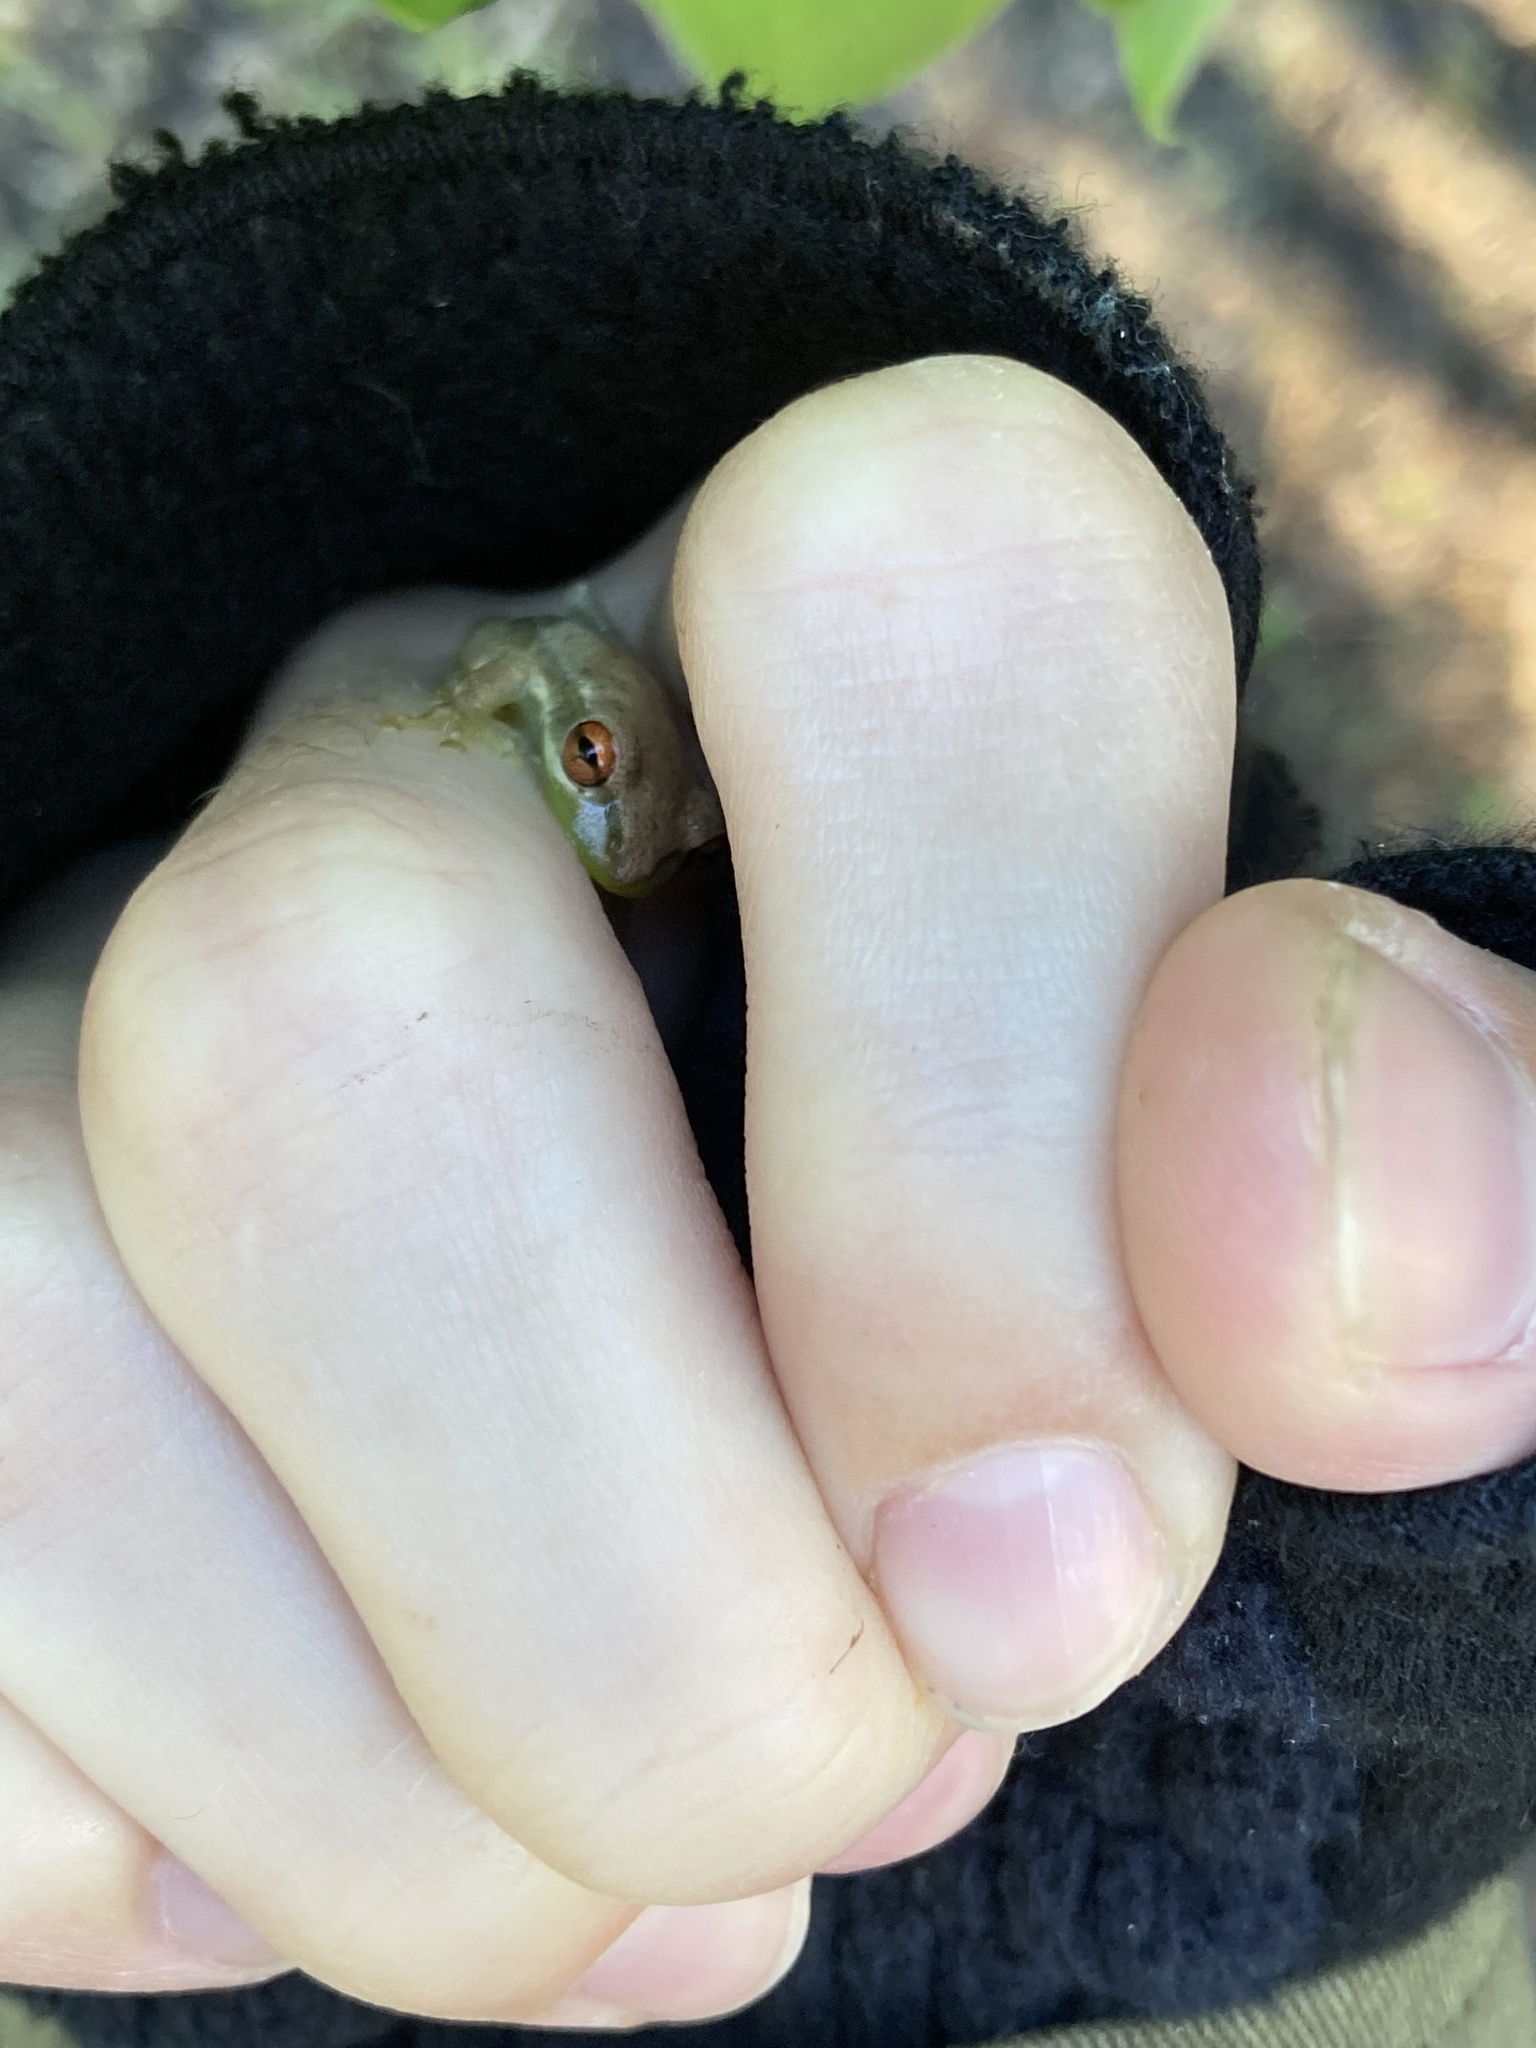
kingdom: Animalia
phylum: Chordata
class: Amphibia
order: Anura
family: Hylidae
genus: Osteopilus
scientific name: Osteopilus septentrionalis
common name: Cuban treefrog
